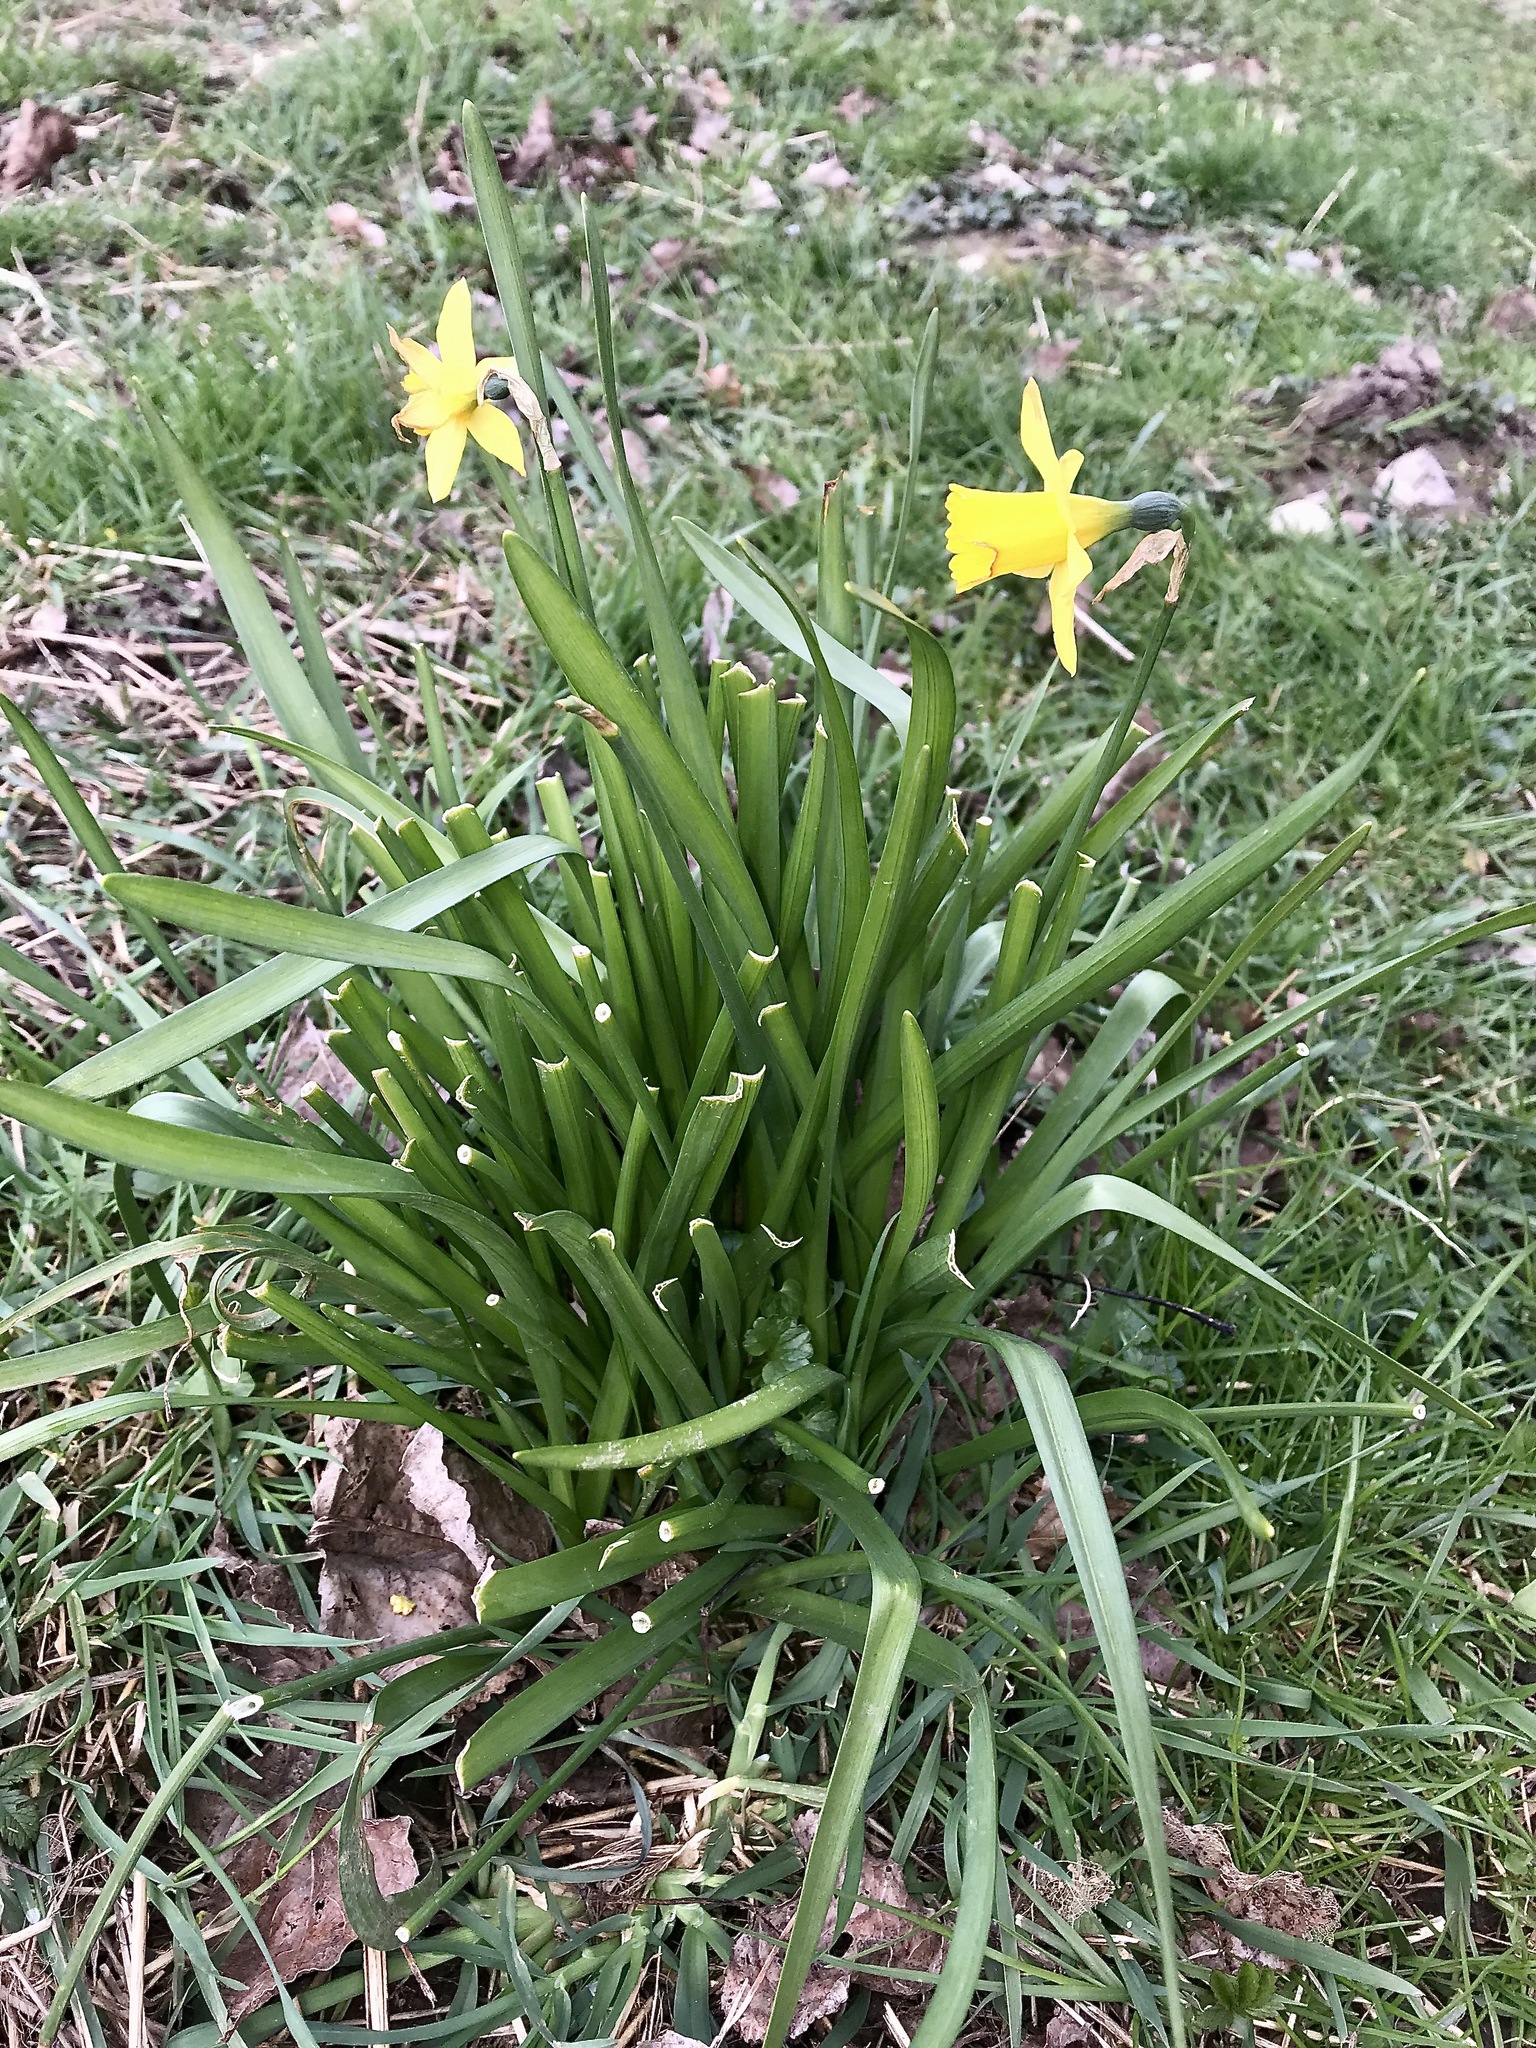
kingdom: Plantae
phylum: Tracheophyta
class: Liliopsida
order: Asparagales
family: Amaryllidaceae
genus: Narcissus
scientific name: Narcissus pseudonarcissus
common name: Daffodil
